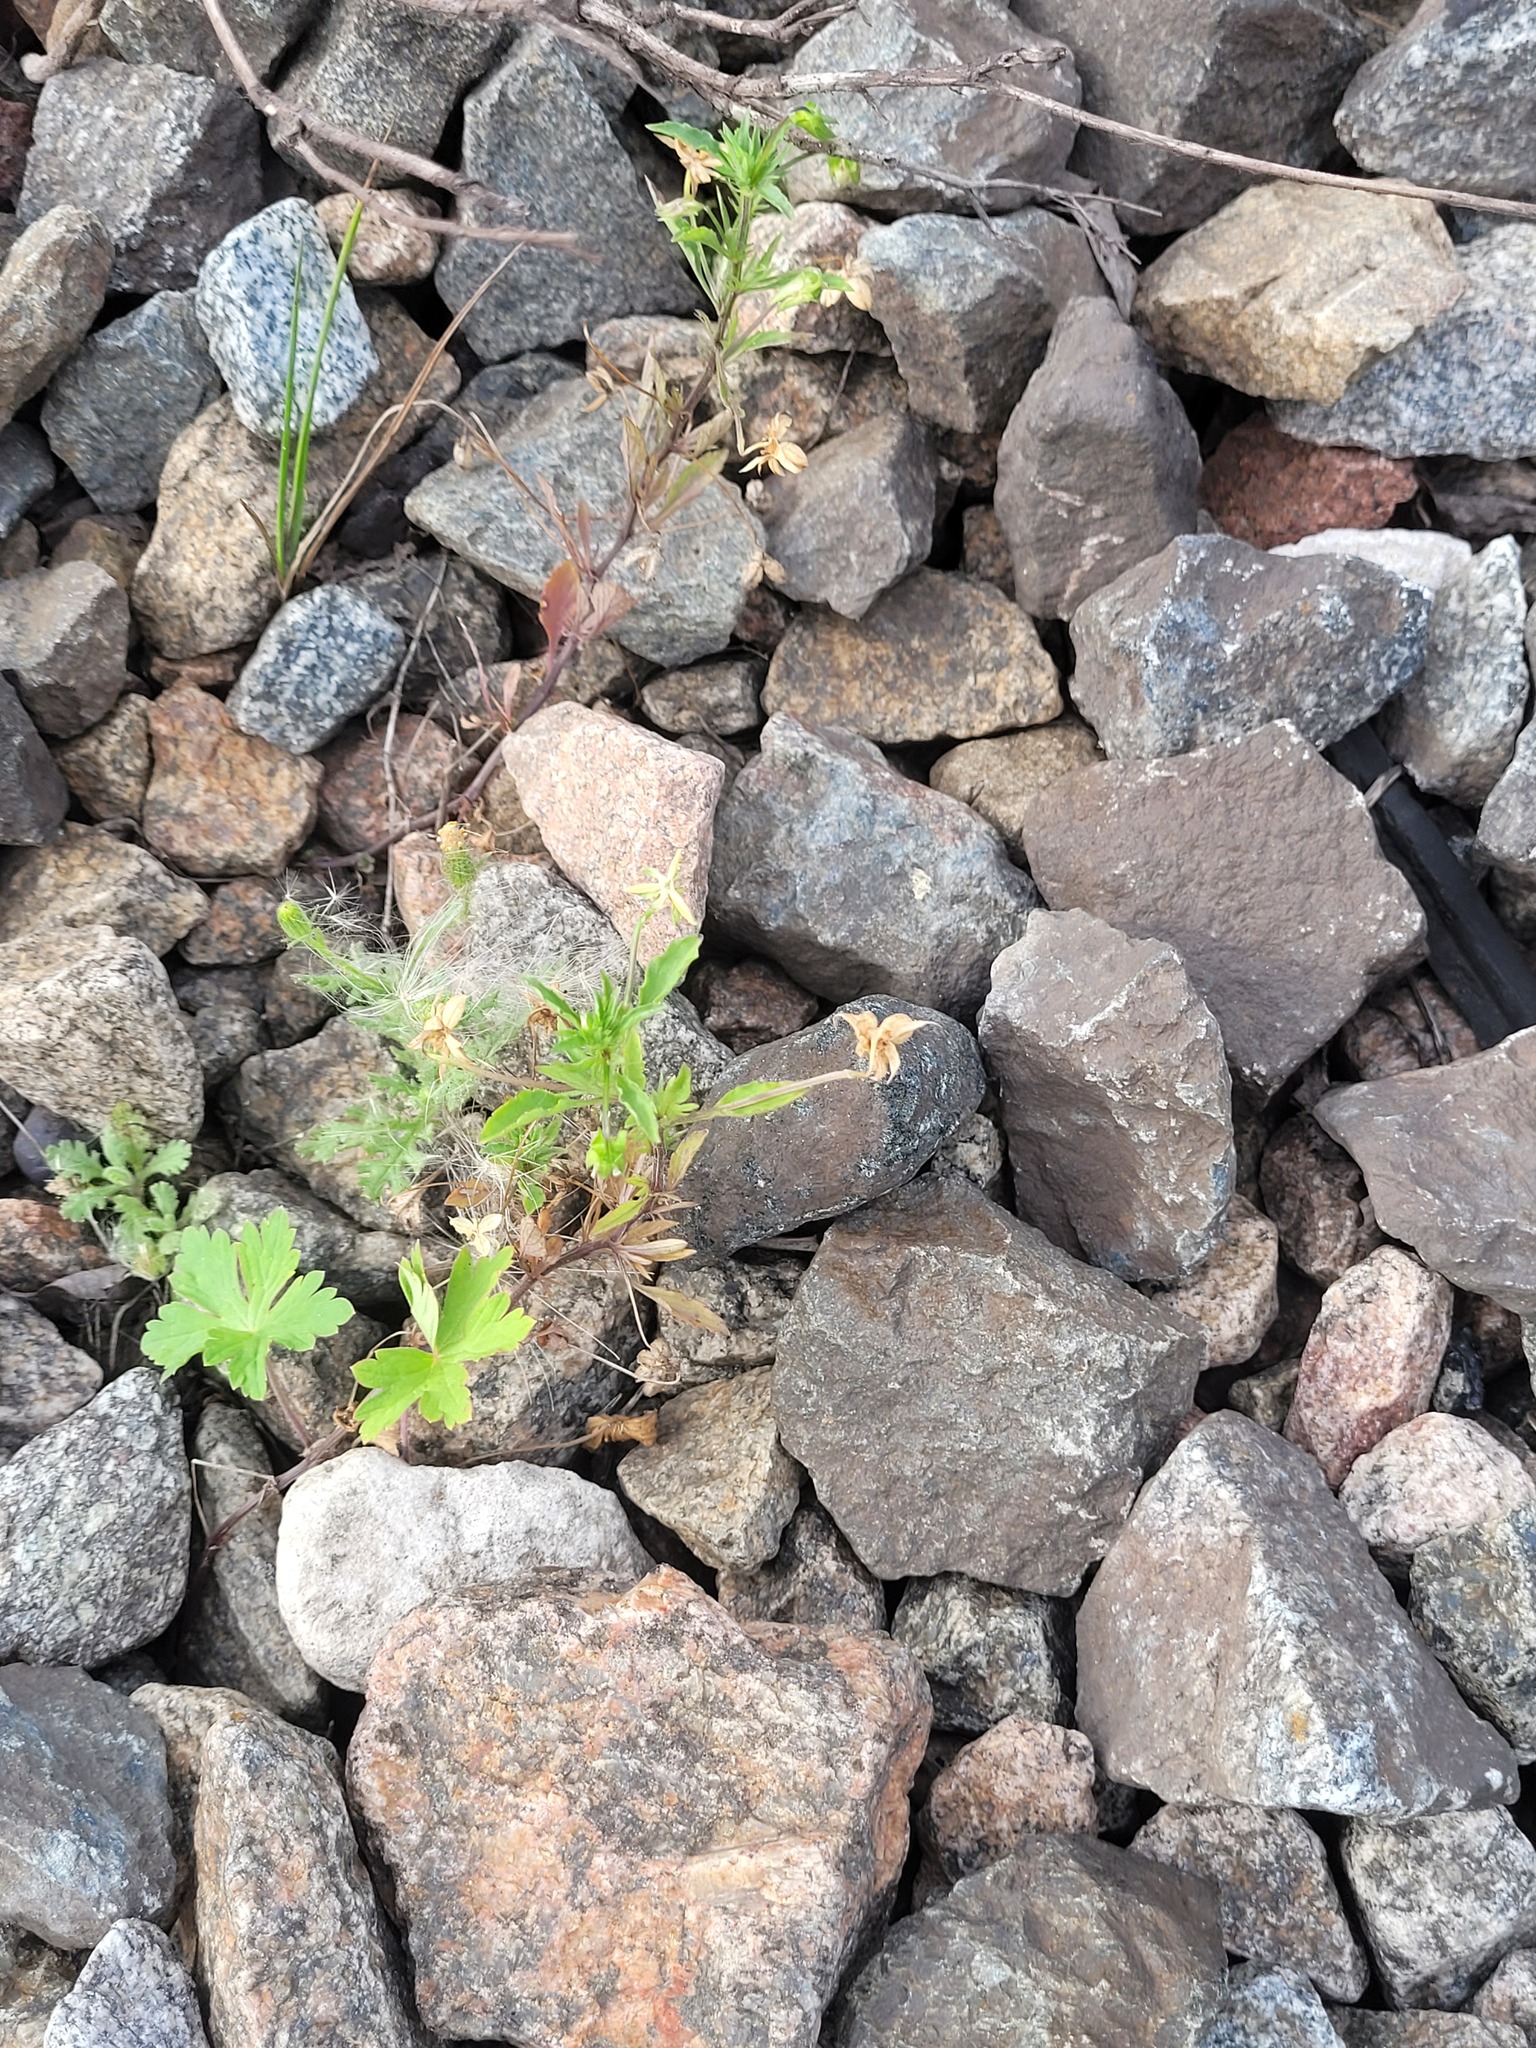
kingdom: Plantae
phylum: Tracheophyta
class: Magnoliopsida
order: Malpighiales
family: Violaceae
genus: Viola
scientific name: Viola arvensis
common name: Field pansy
